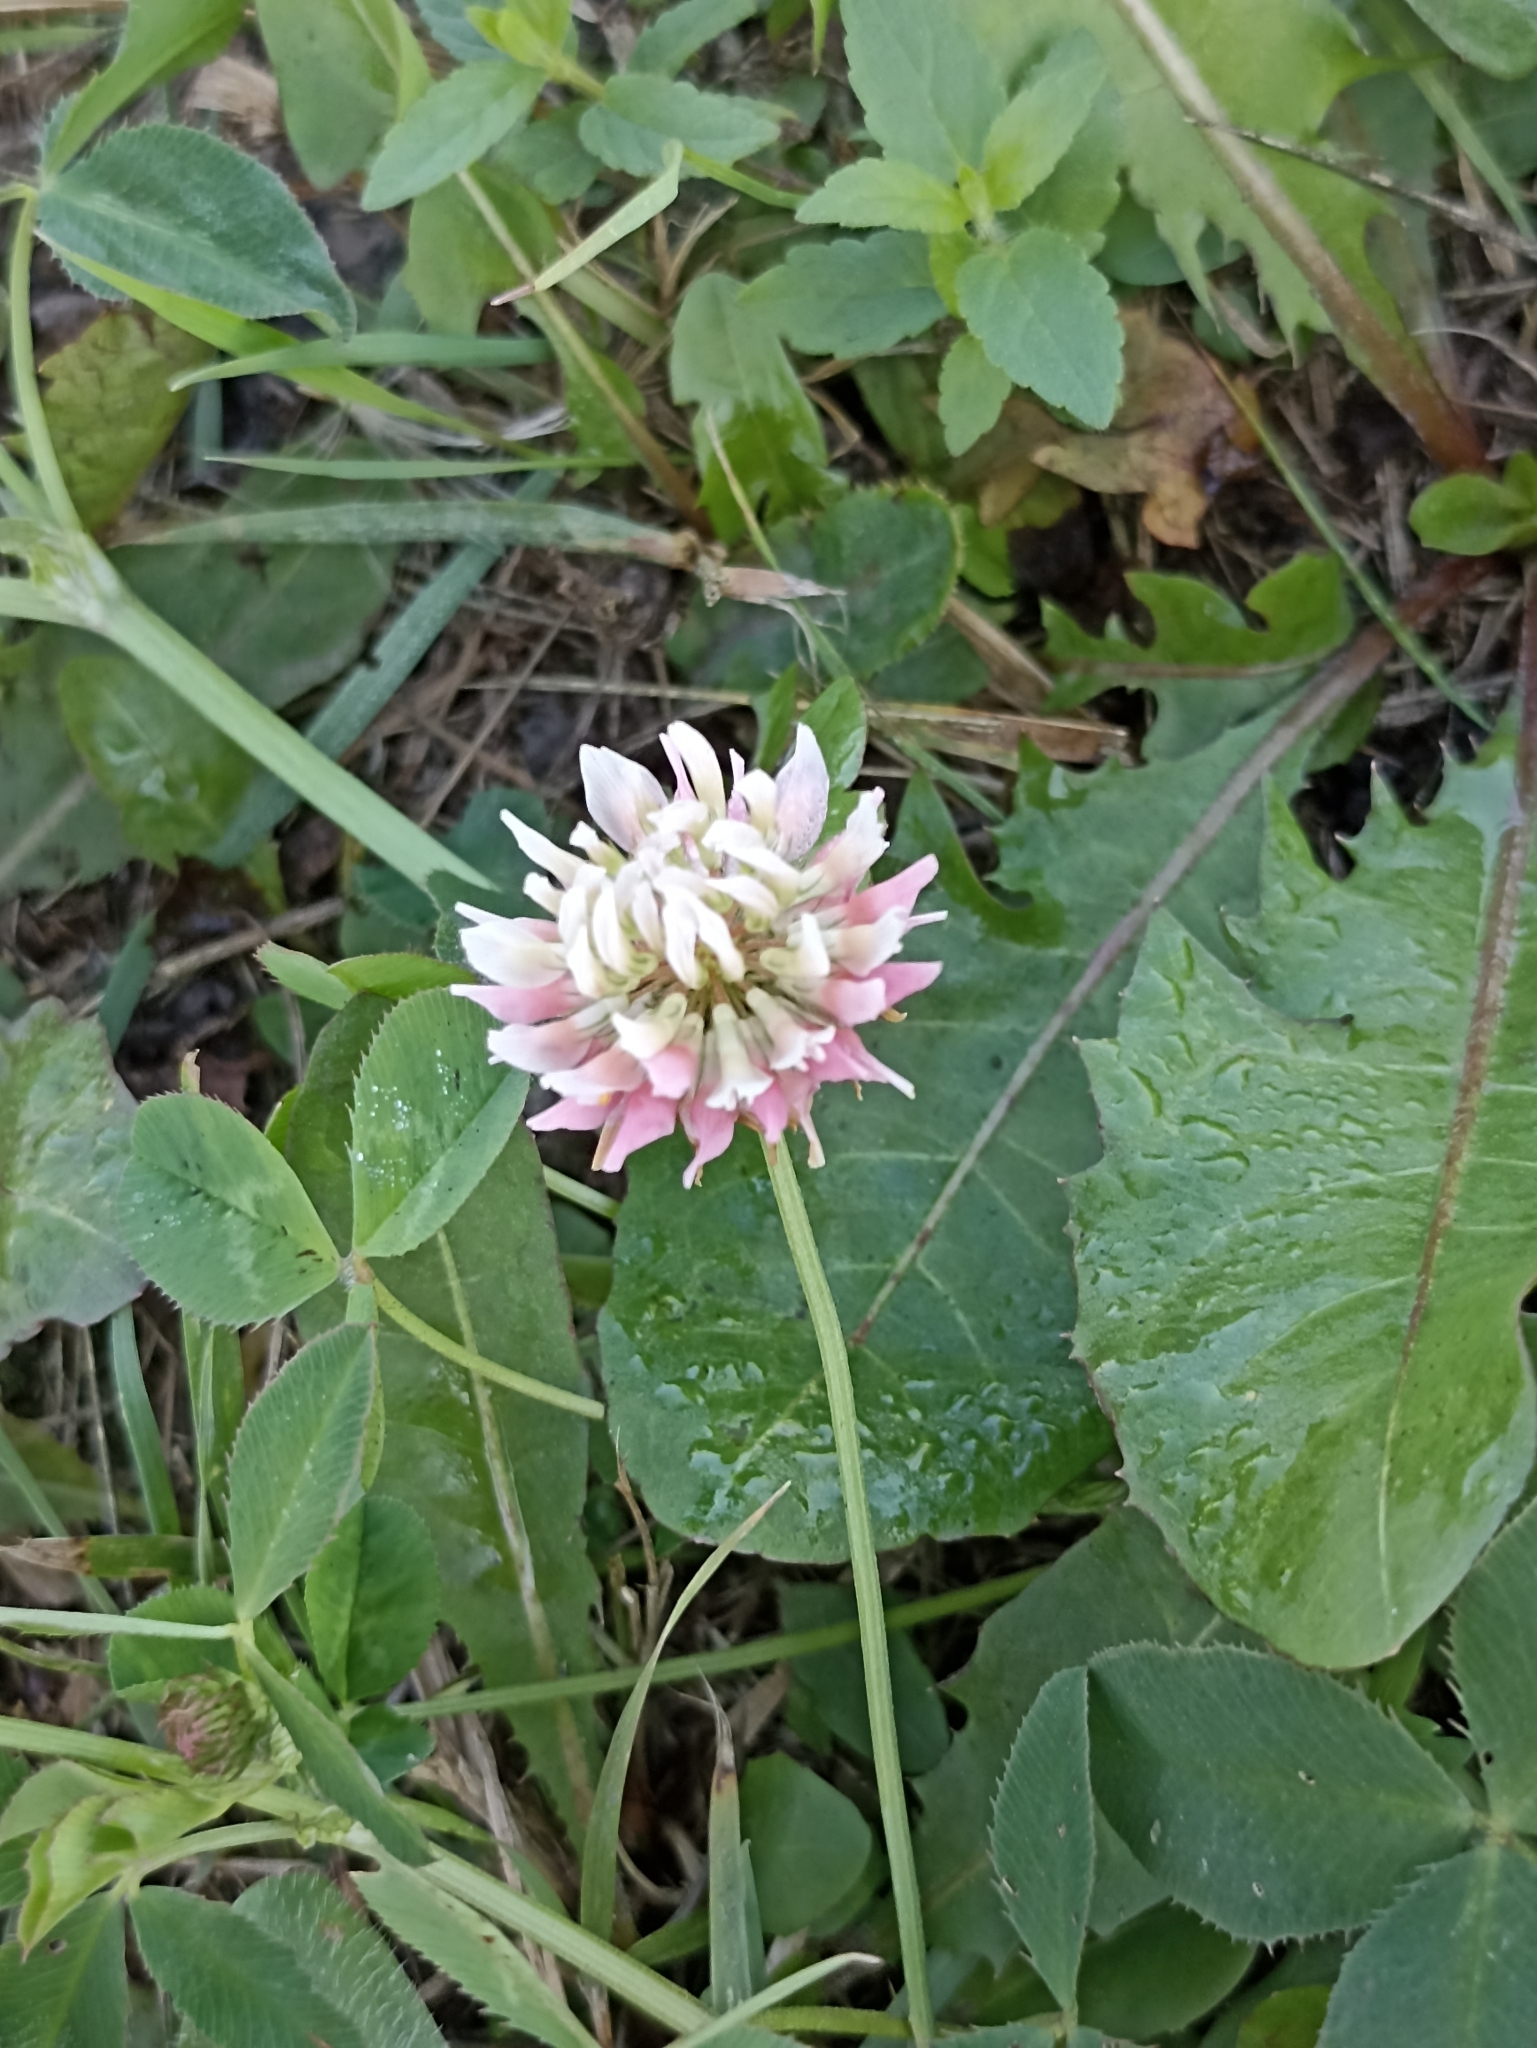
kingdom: Plantae
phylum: Tracheophyta
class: Magnoliopsida
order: Fabales
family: Fabaceae
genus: Trifolium
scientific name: Trifolium hybridum
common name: Alsike clover
